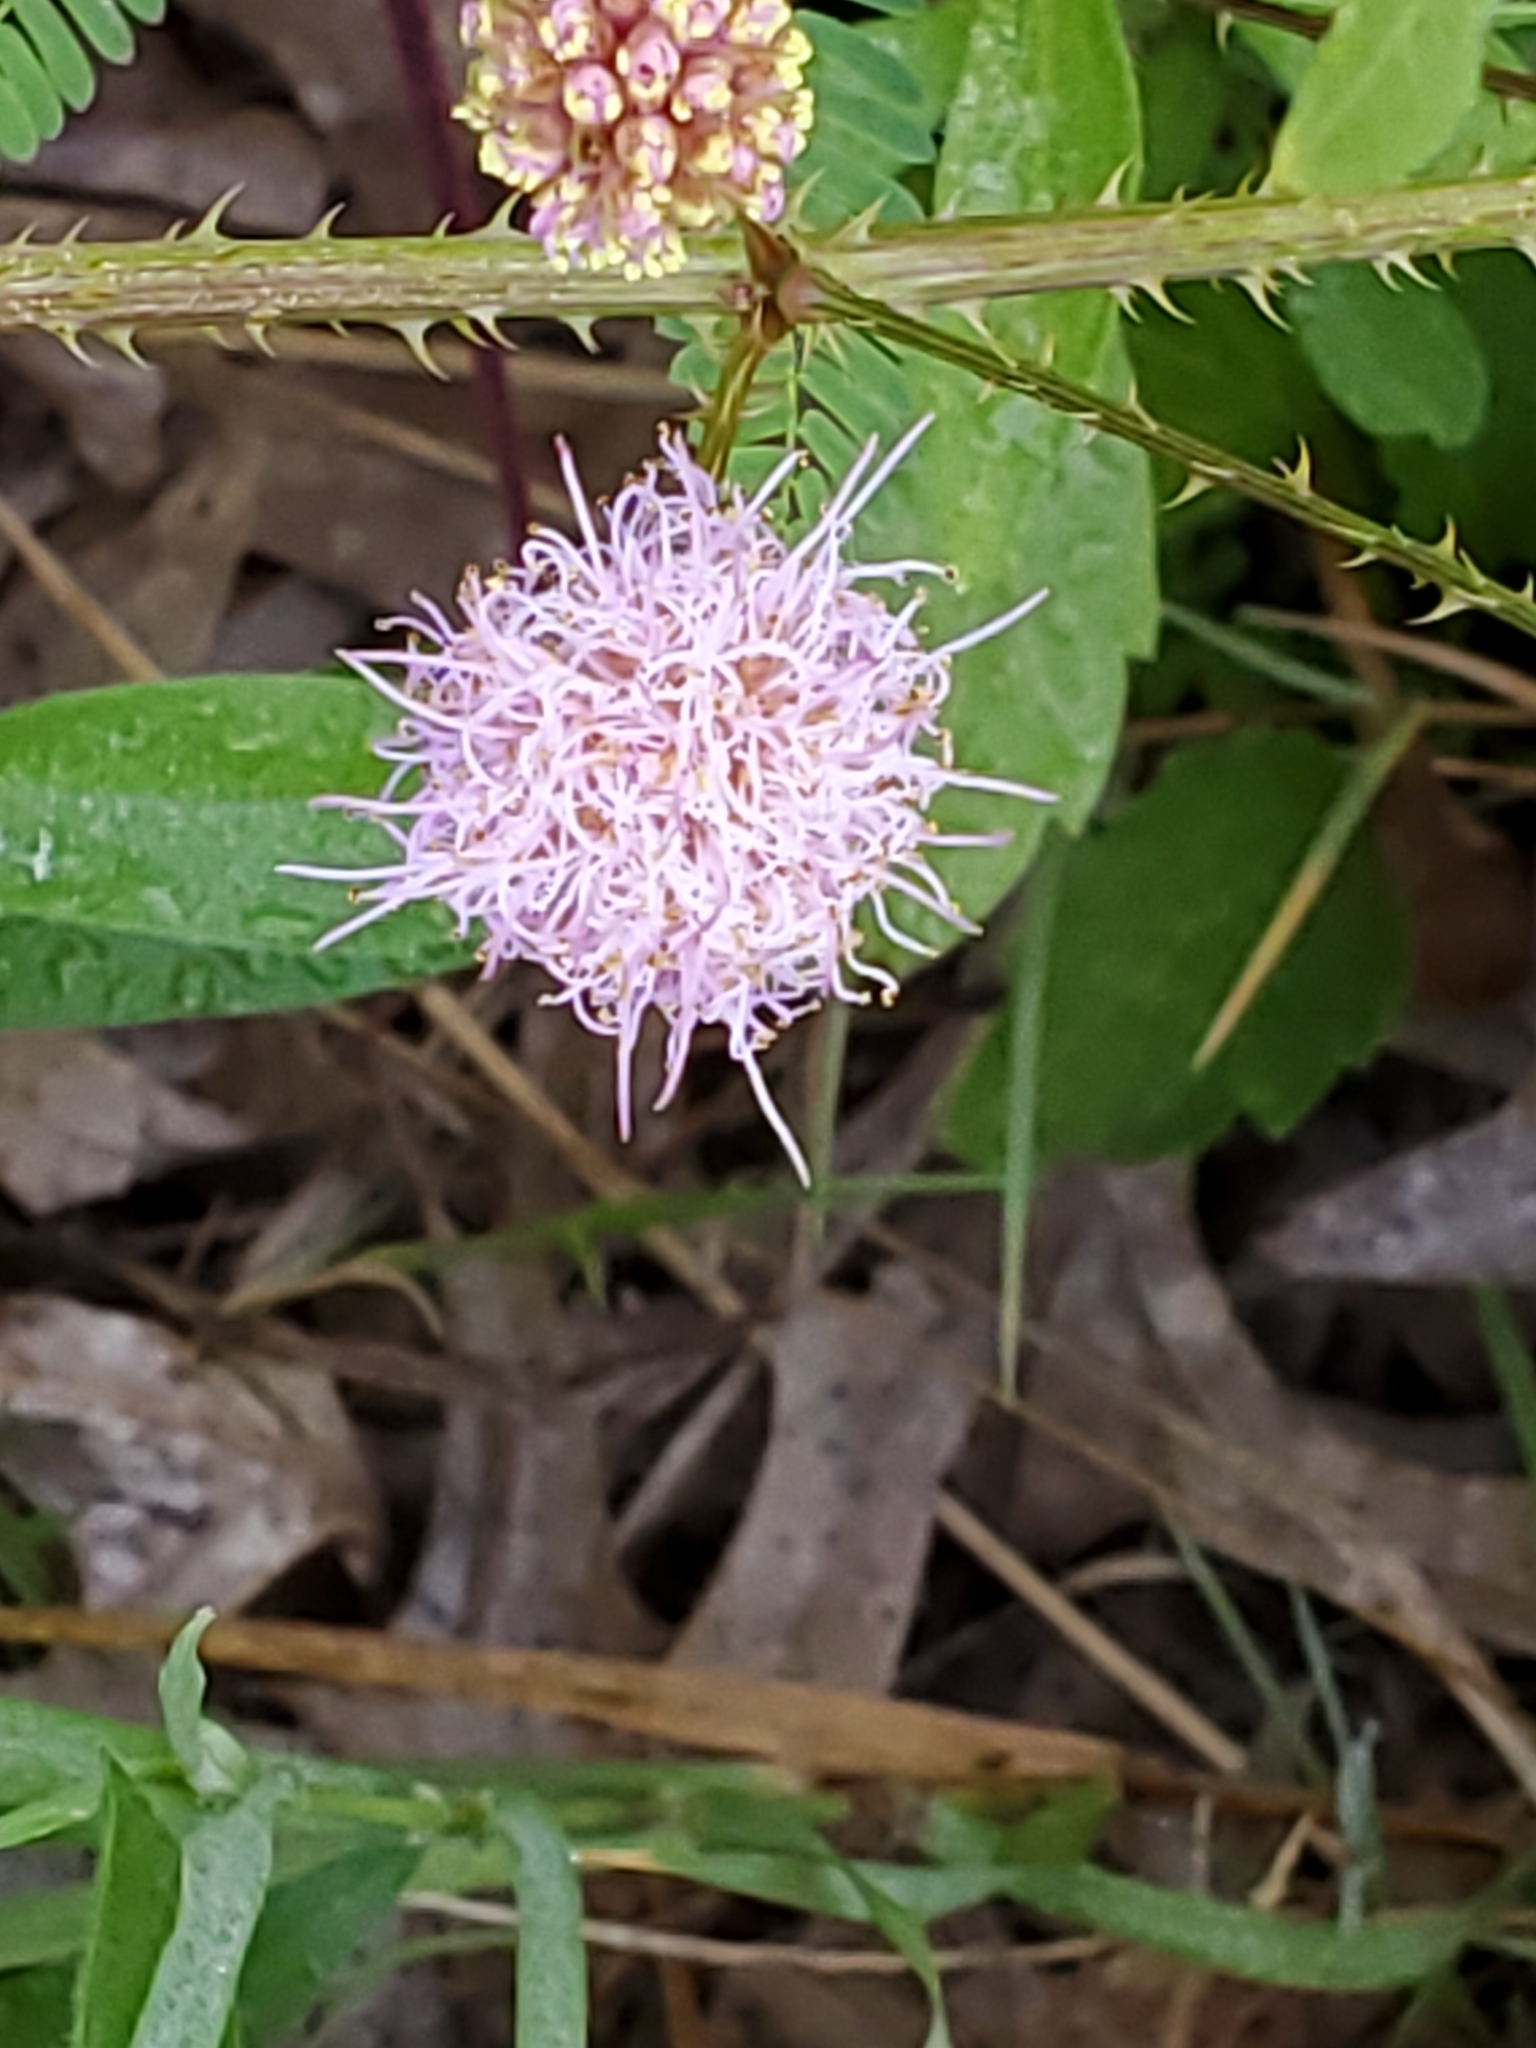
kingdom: Plantae
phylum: Tracheophyta
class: Magnoliopsida
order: Fabales
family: Fabaceae
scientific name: Fabaceae
